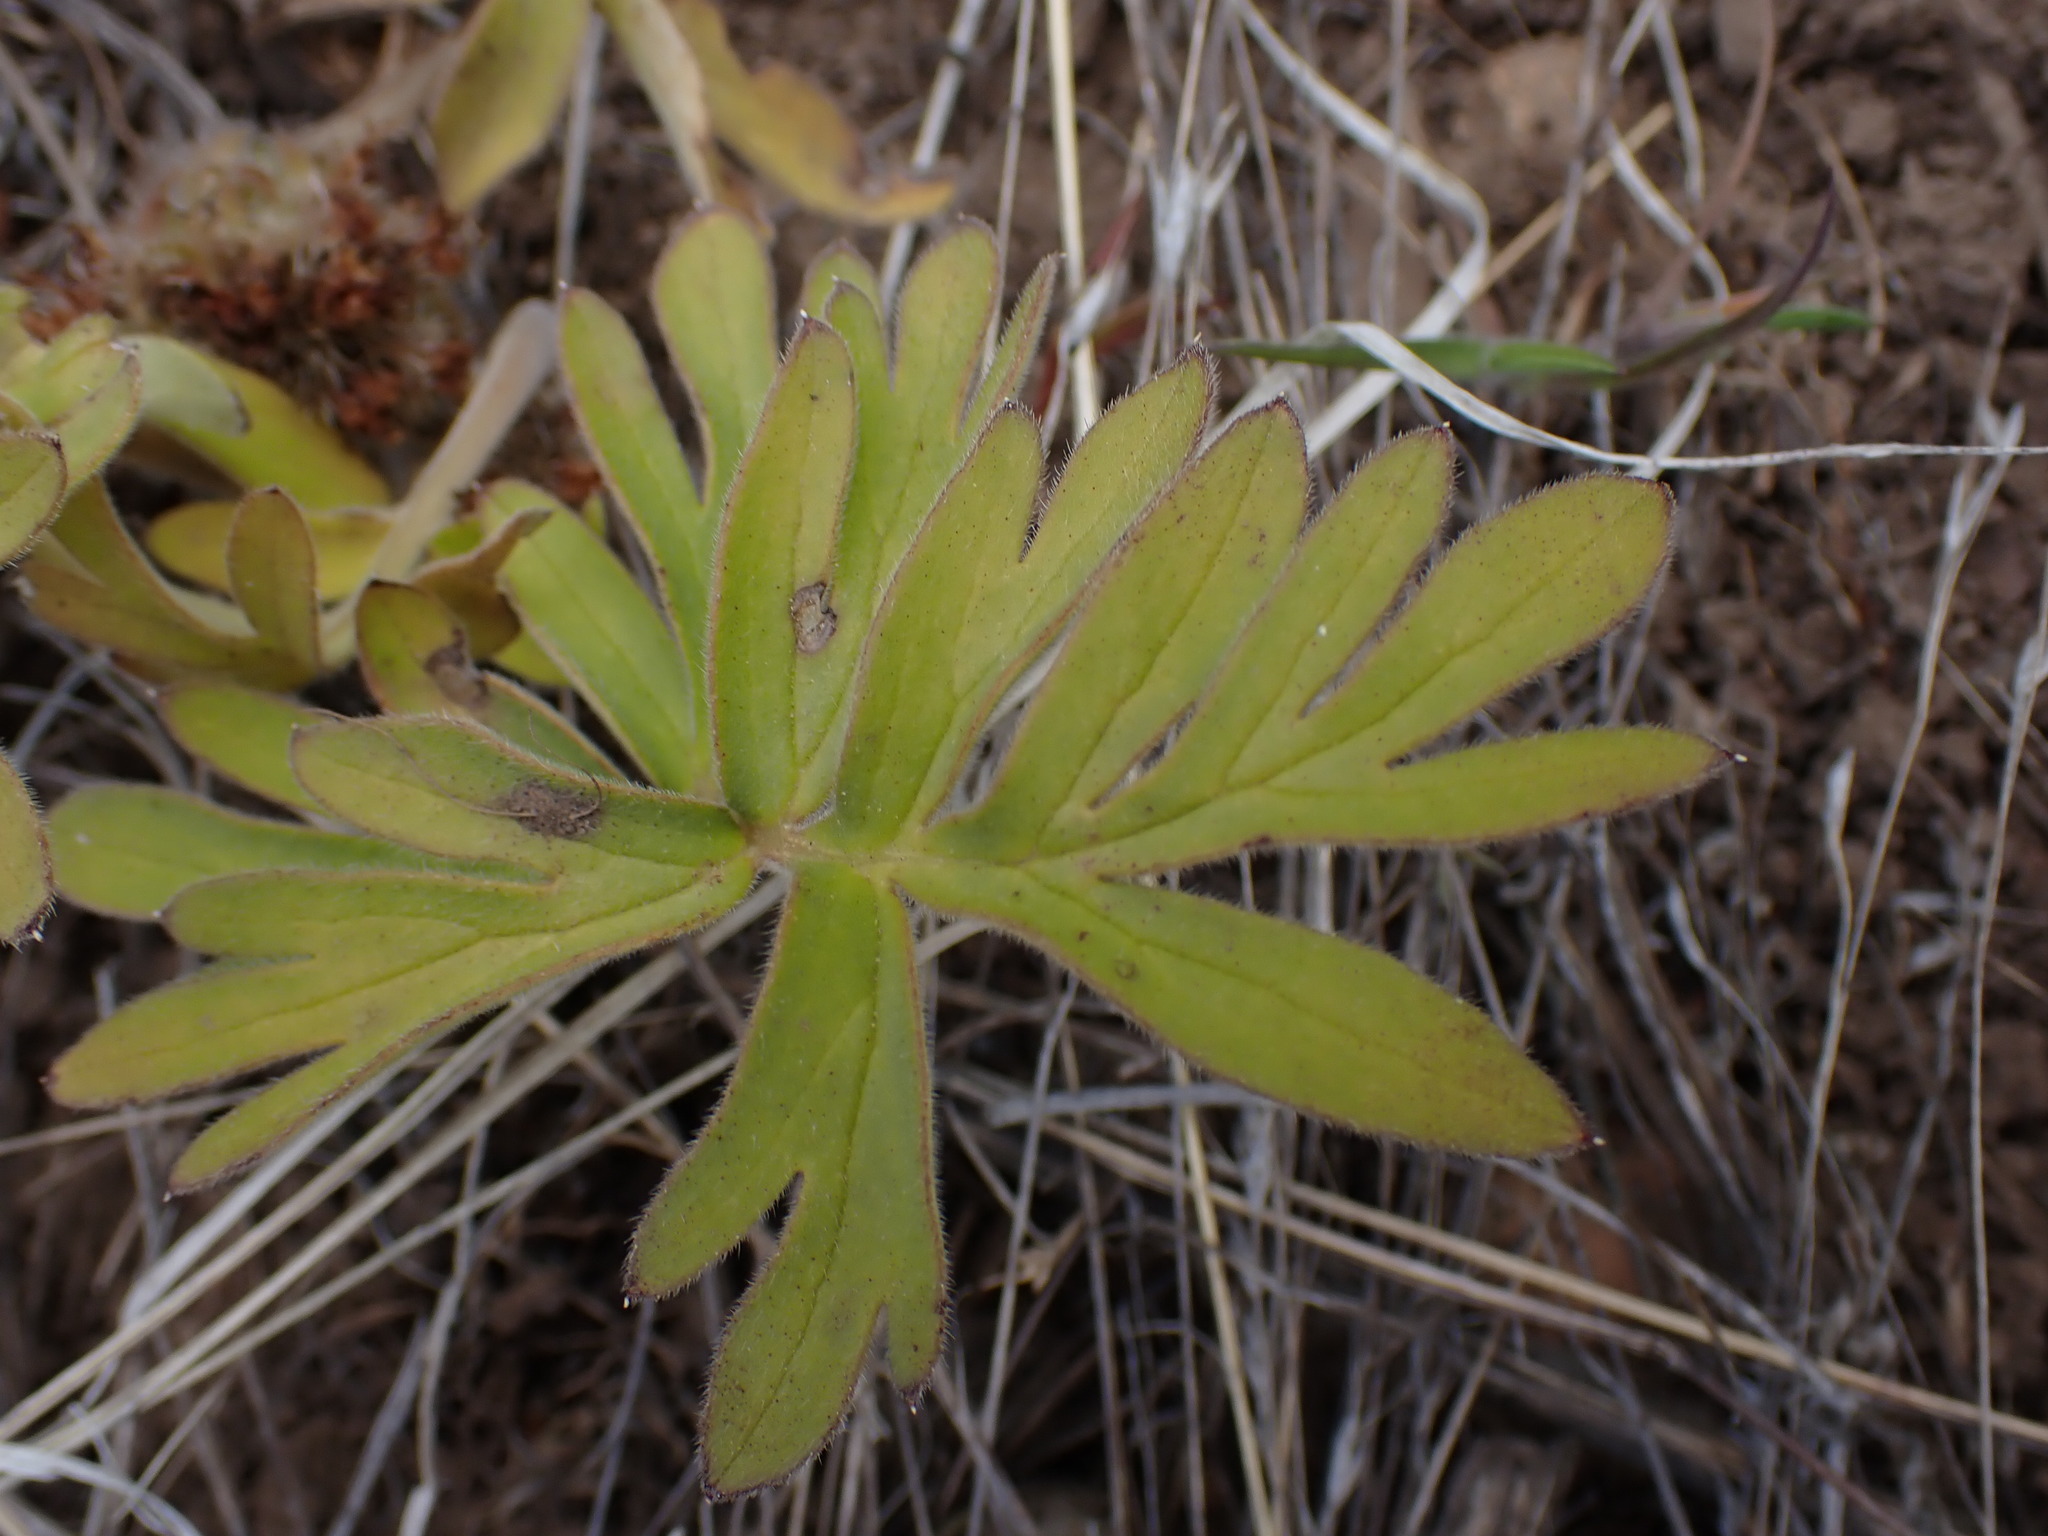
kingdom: Plantae
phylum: Tracheophyta
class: Magnoliopsida
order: Boraginales
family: Hydrophyllaceae
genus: Hydrophyllum
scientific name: Hydrophyllum capitatum
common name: Woollen-breeches
